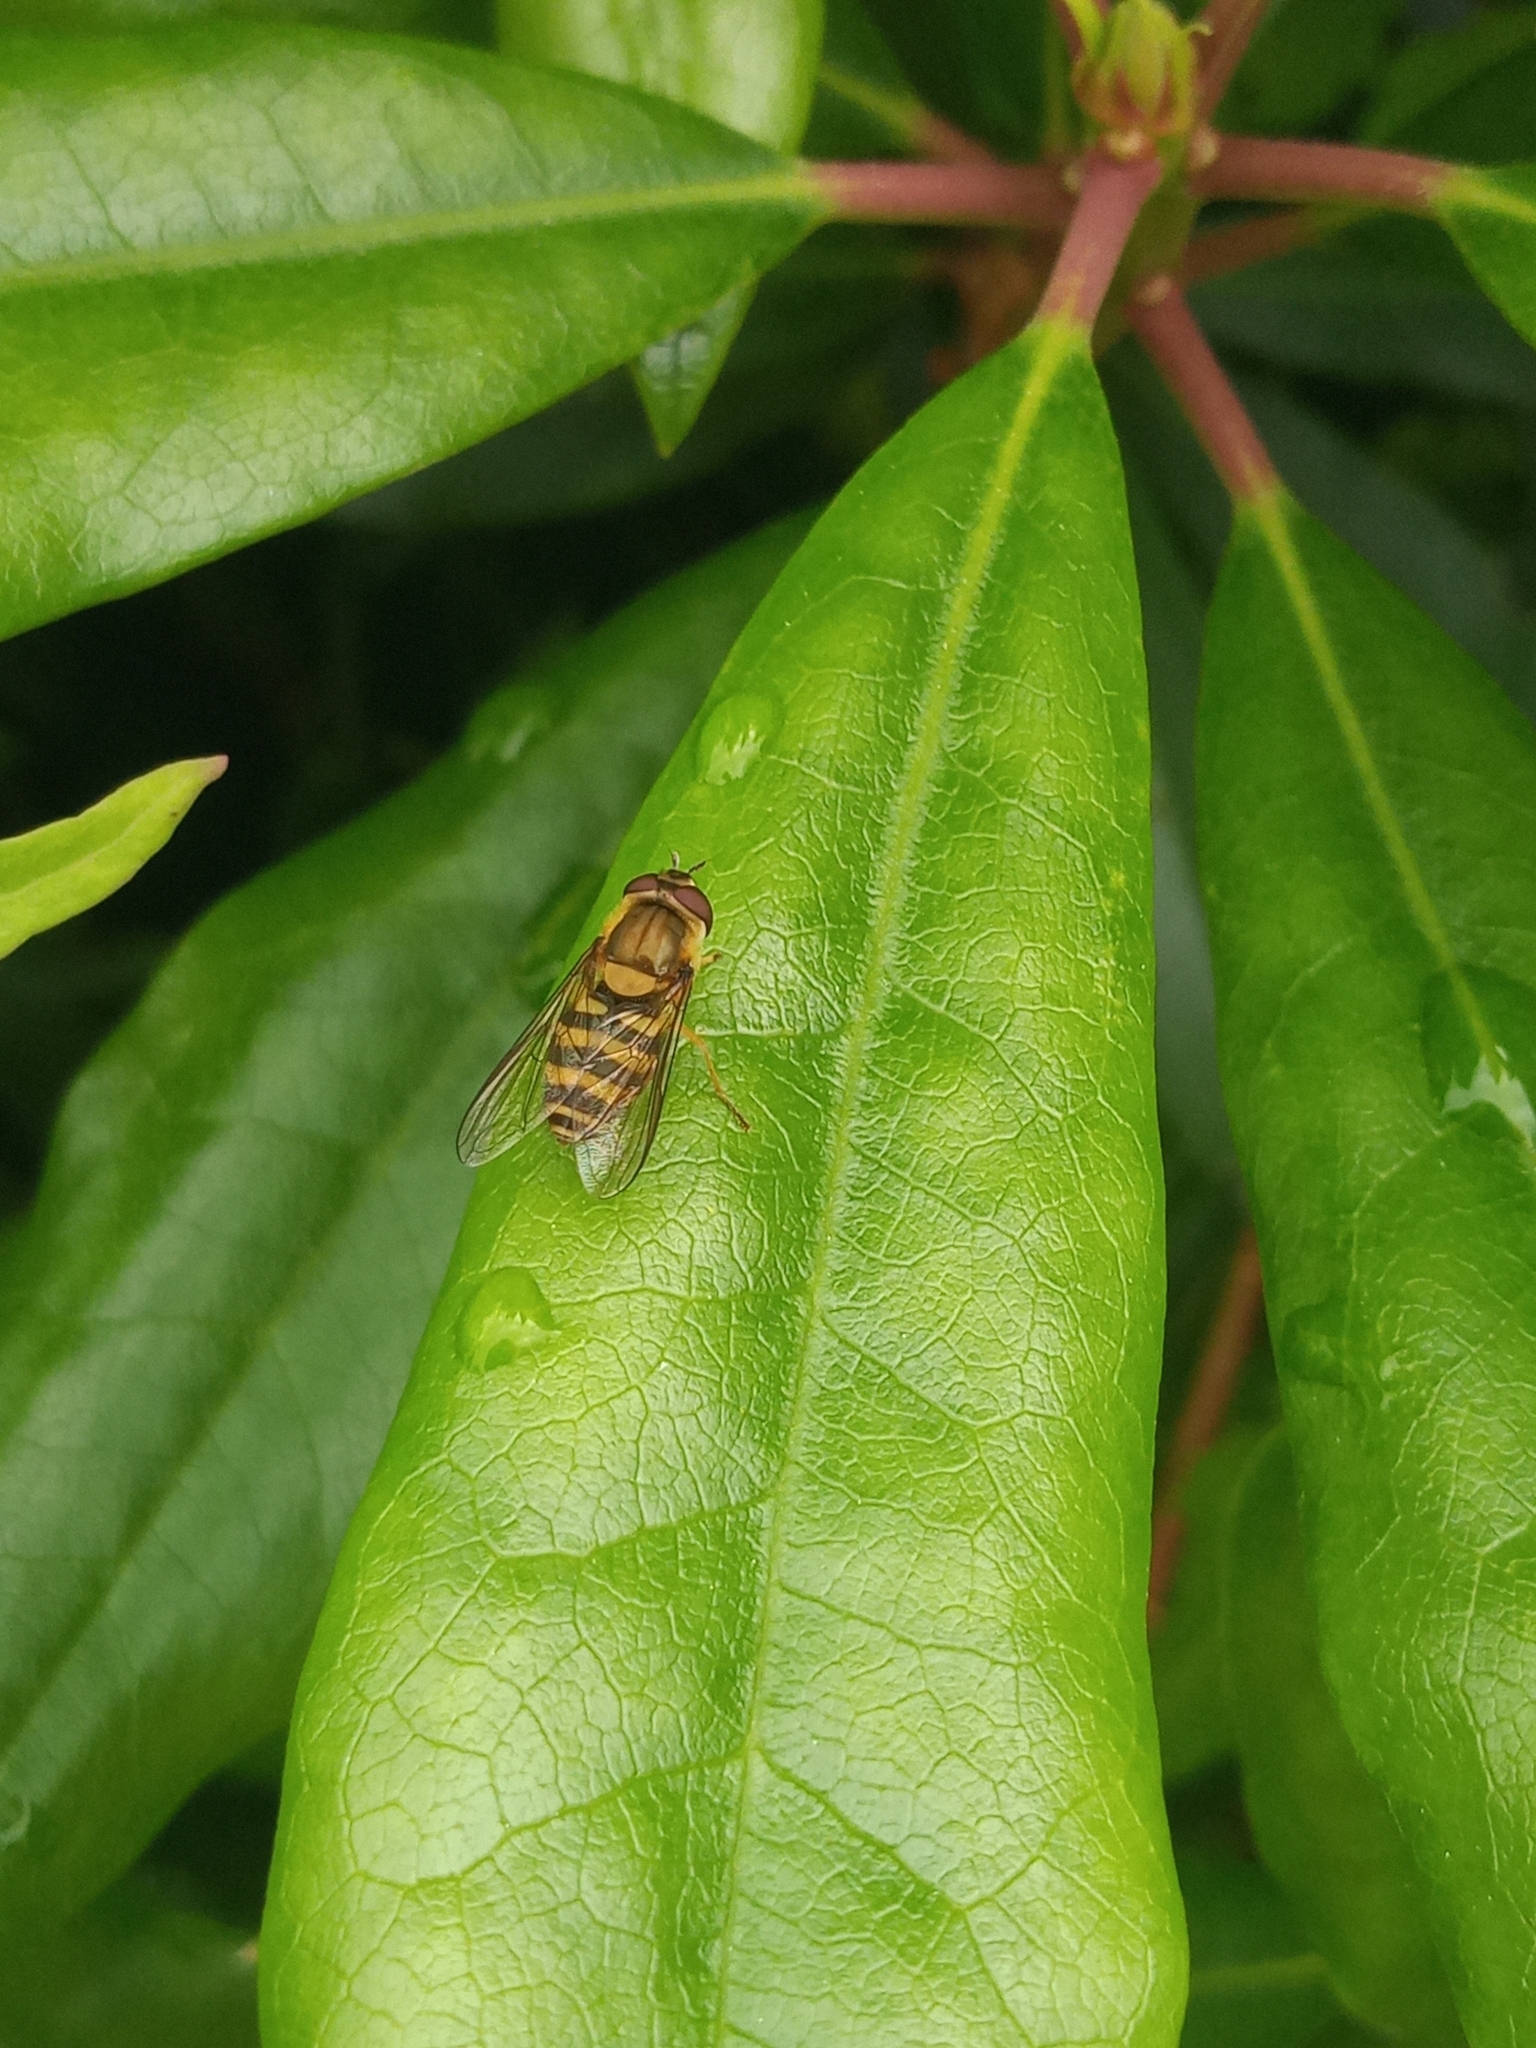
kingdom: Animalia
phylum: Arthropoda
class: Insecta
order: Diptera
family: Syrphidae
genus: Syrphus
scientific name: Syrphus
